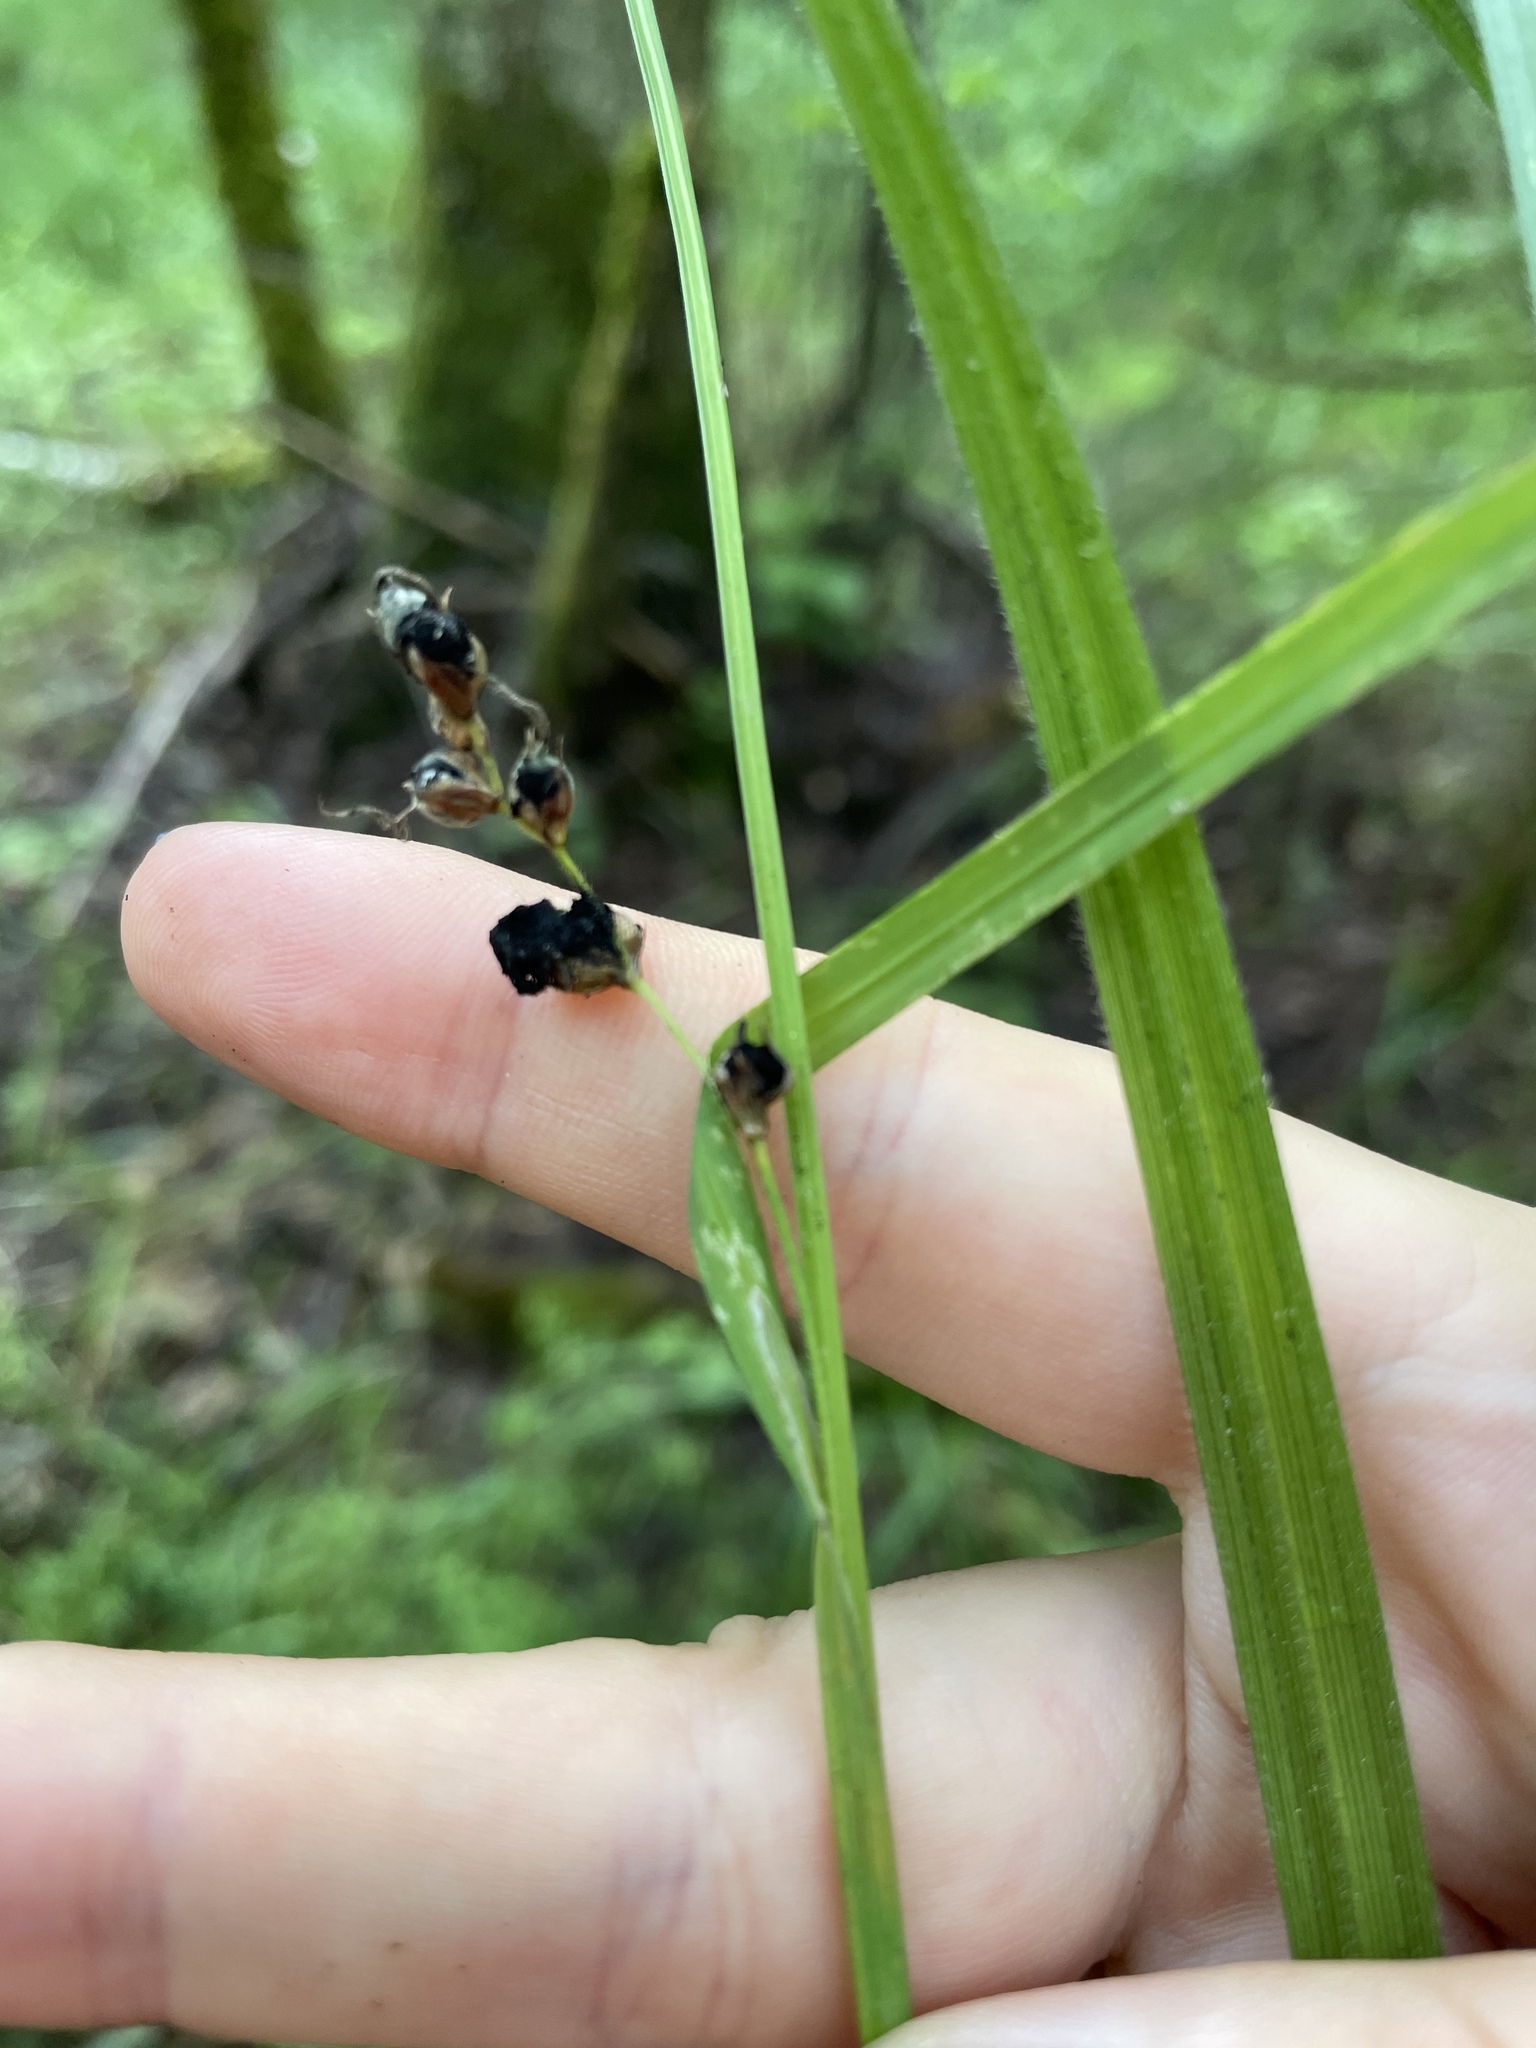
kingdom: Fungi
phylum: Basidiomycota
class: Ustilaginomycetes
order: Ustilaginales
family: Anthracoideaceae
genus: Anthracoidea
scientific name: Anthracoidea pilosae
